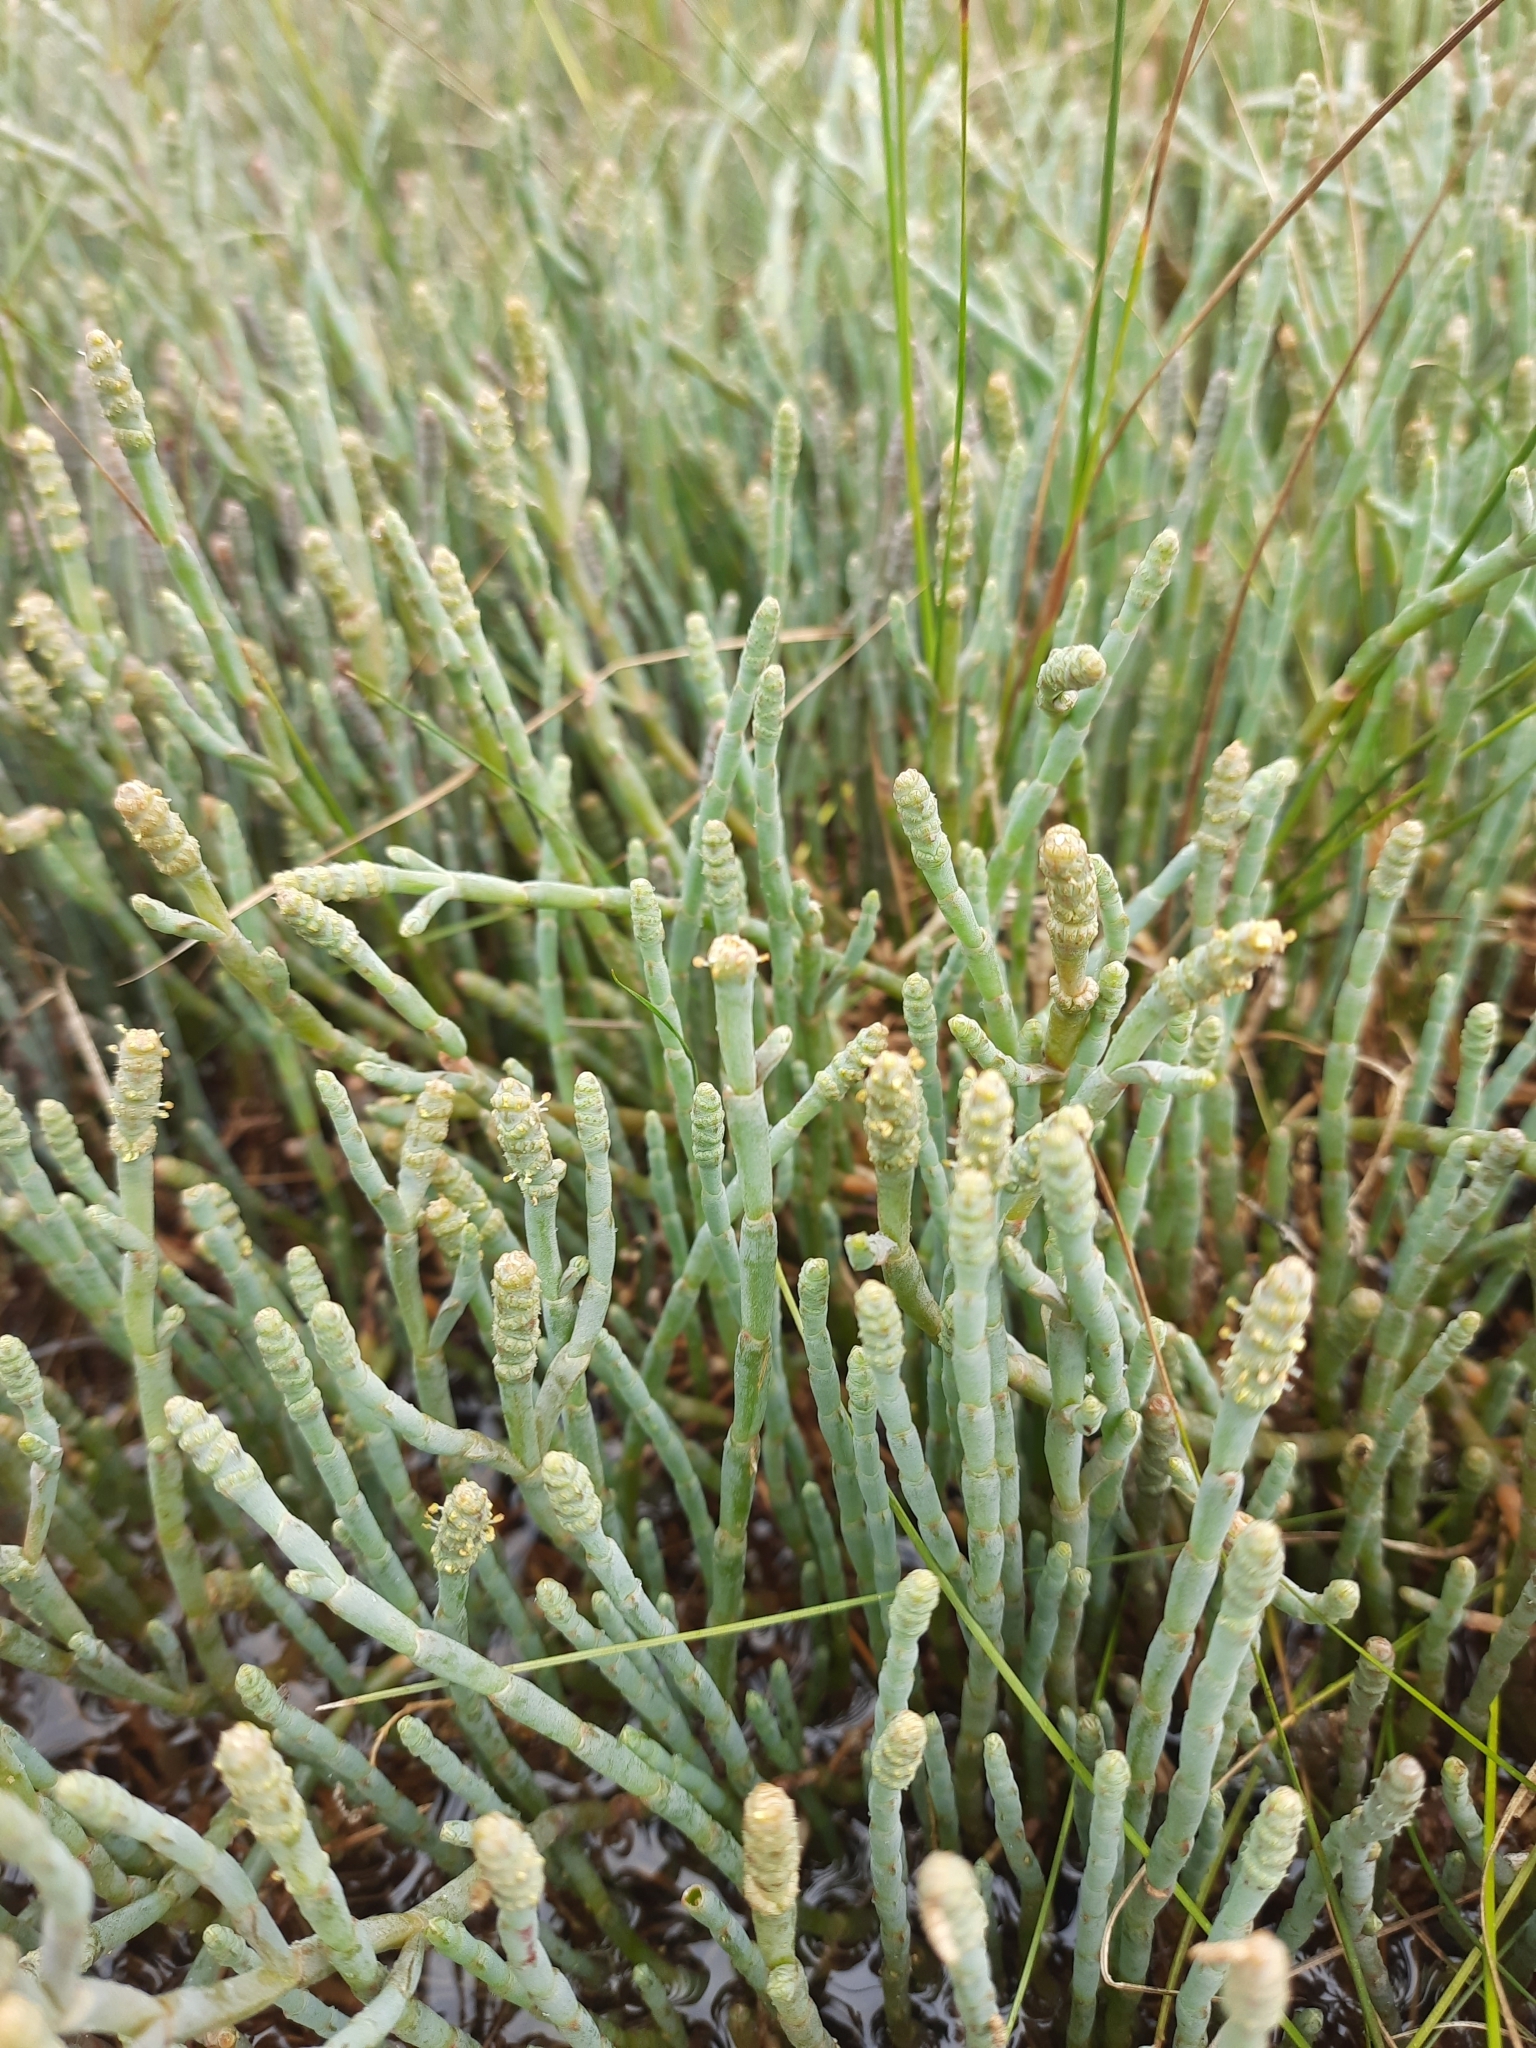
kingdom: Plantae
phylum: Tracheophyta
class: Magnoliopsida
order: Caryophyllales
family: Amaranthaceae
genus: Salicornia
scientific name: Salicornia quinqueflora
